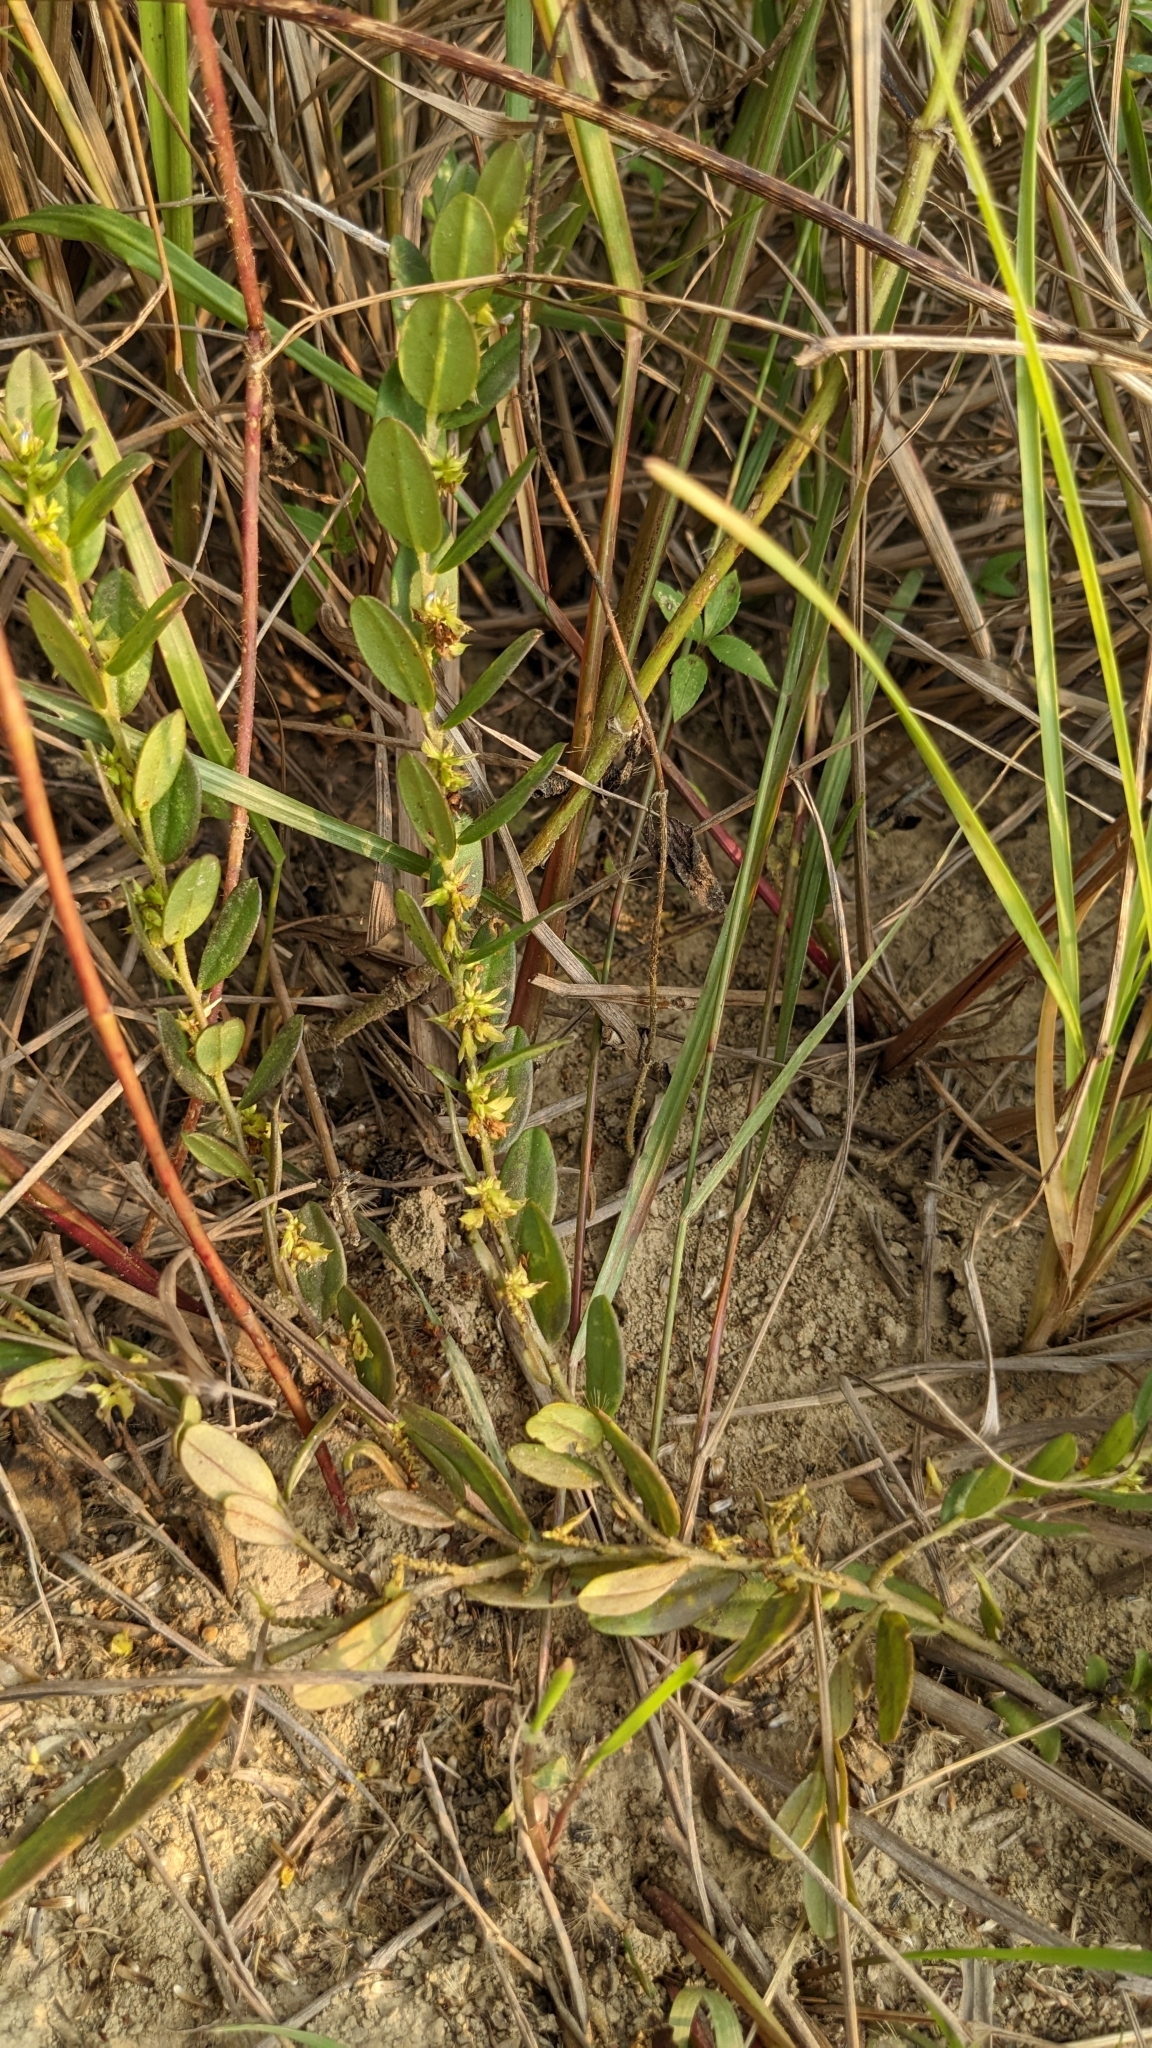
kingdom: Plantae
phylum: Tracheophyta
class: Magnoliopsida
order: Fabales
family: Polygalaceae
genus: Polygala
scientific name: Polygala arvensis
